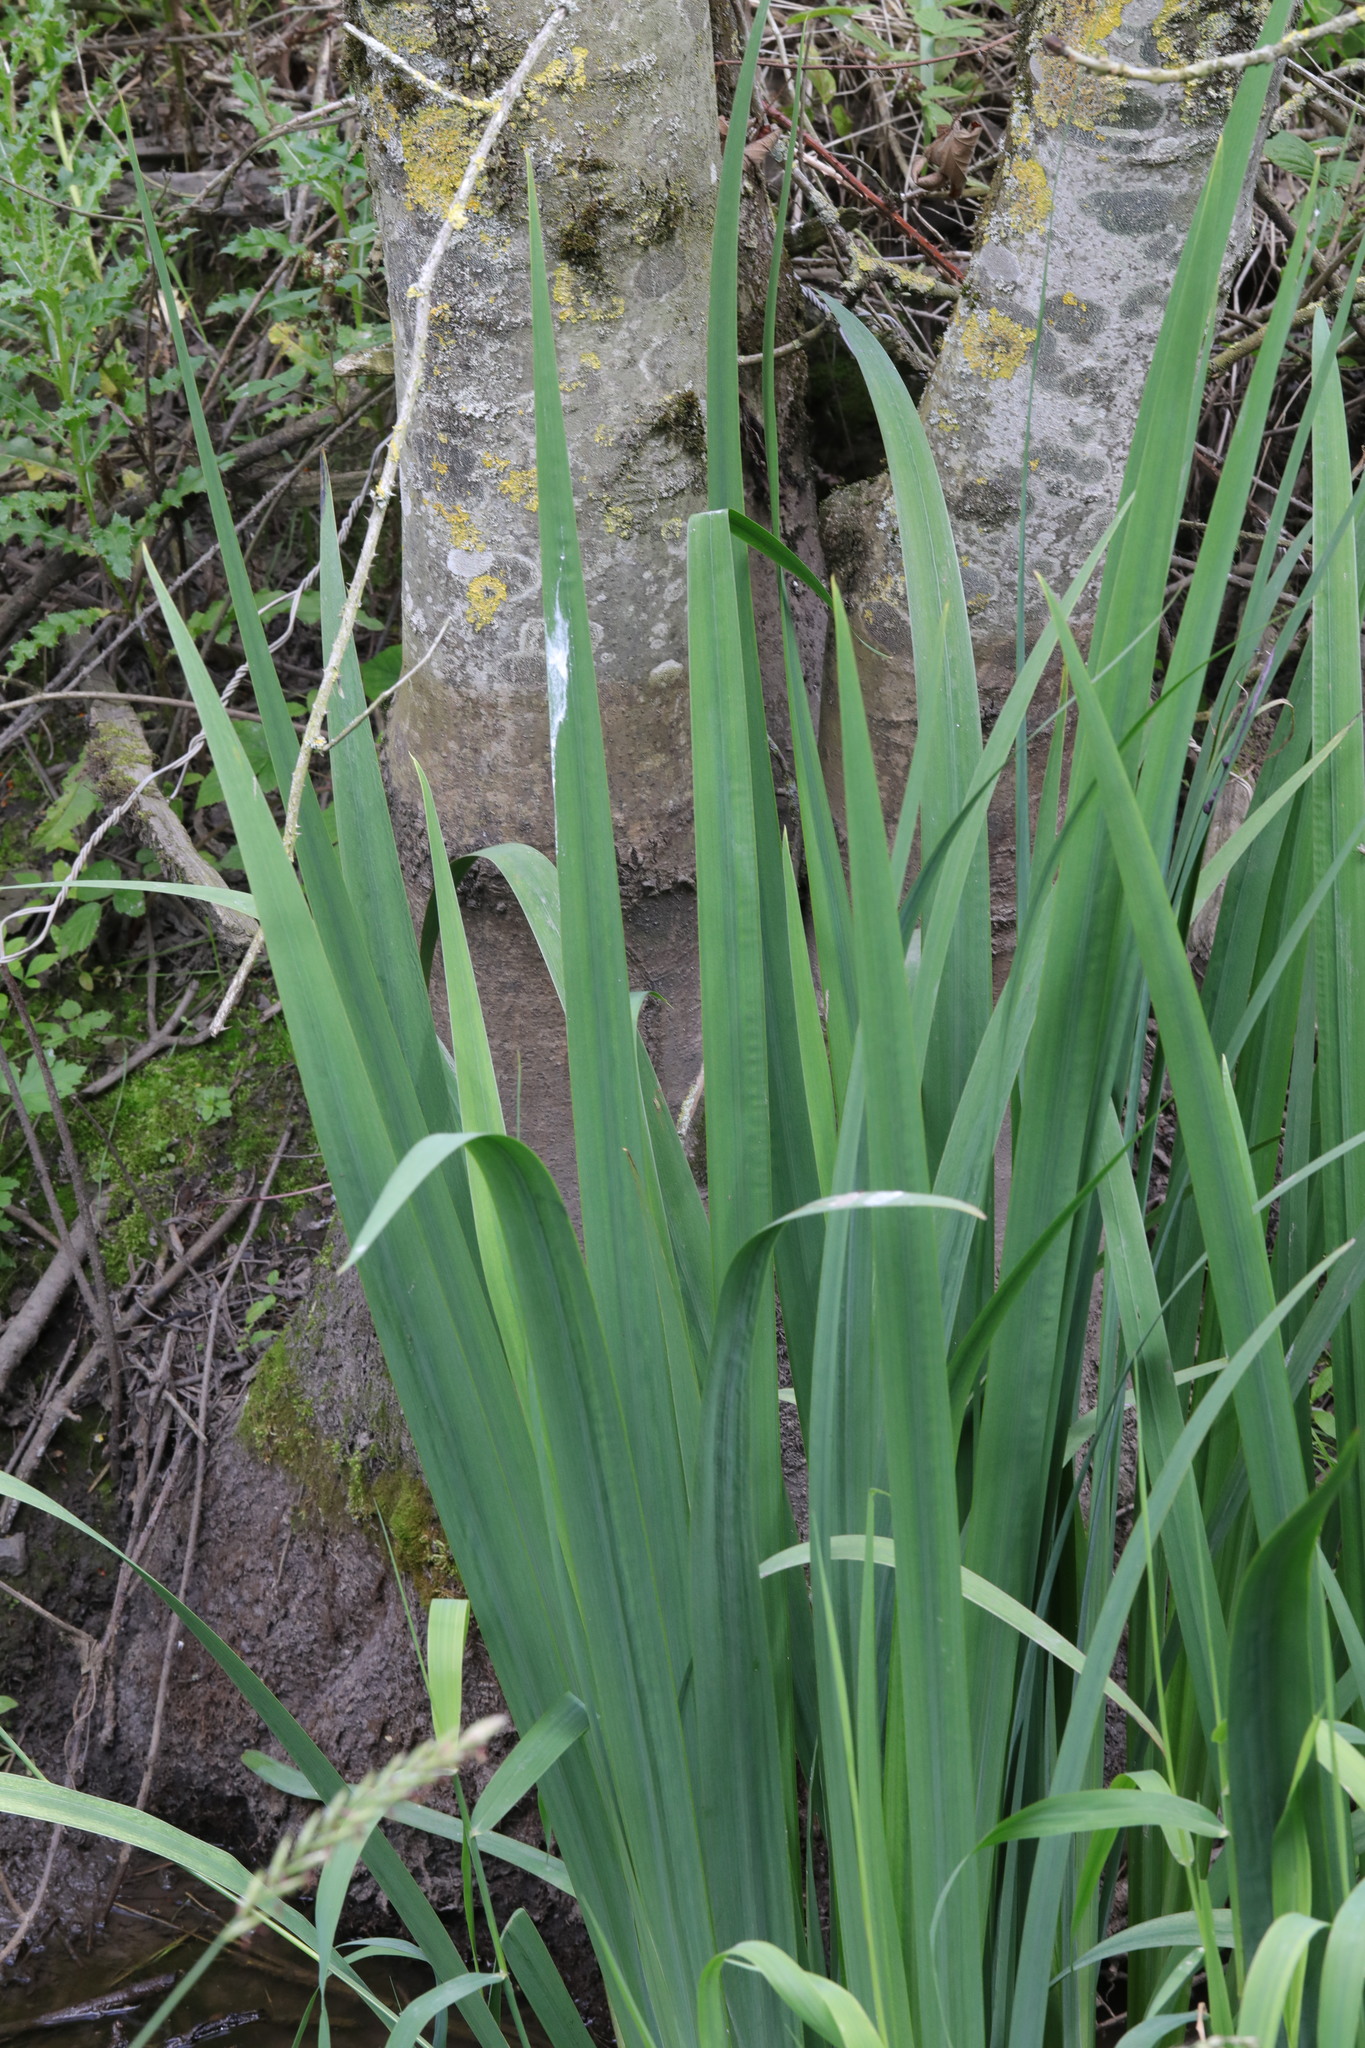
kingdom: Plantae
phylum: Tracheophyta
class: Liliopsida
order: Asparagales
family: Iridaceae
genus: Iris
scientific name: Iris pseudacorus
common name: Yellow flag
